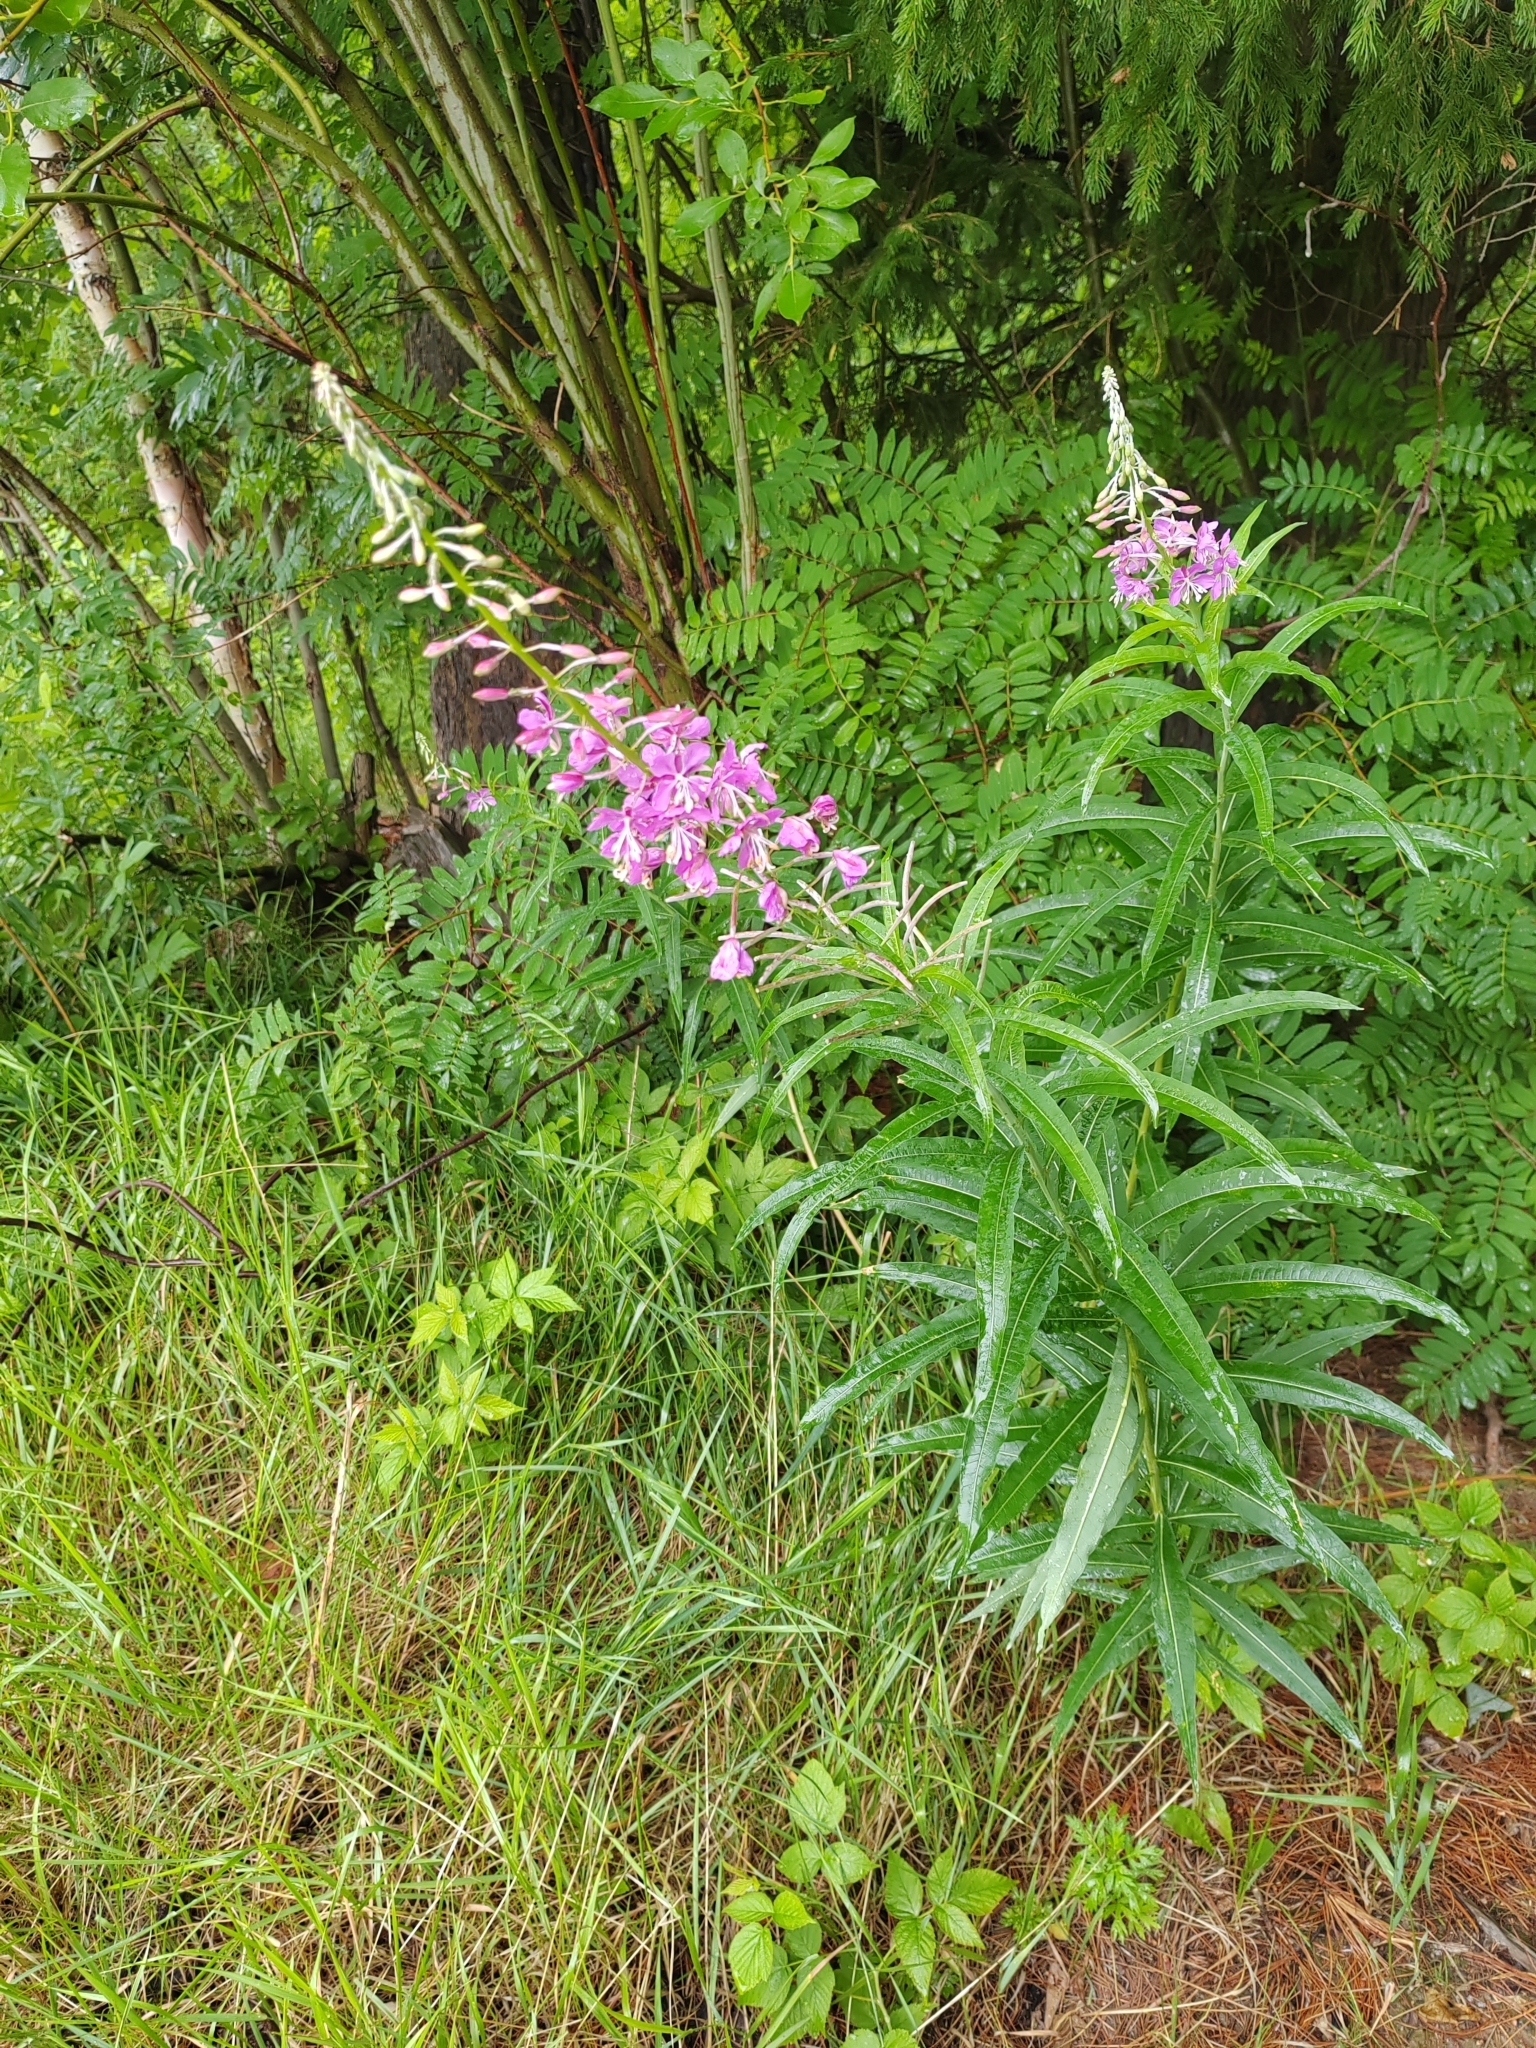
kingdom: Plantae
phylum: Tracheophyta
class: Magnoliopsida
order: Myrtales
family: Onagraceae
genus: Chamaenerion
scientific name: Chamaenerion angustifolium
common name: Fireweed
